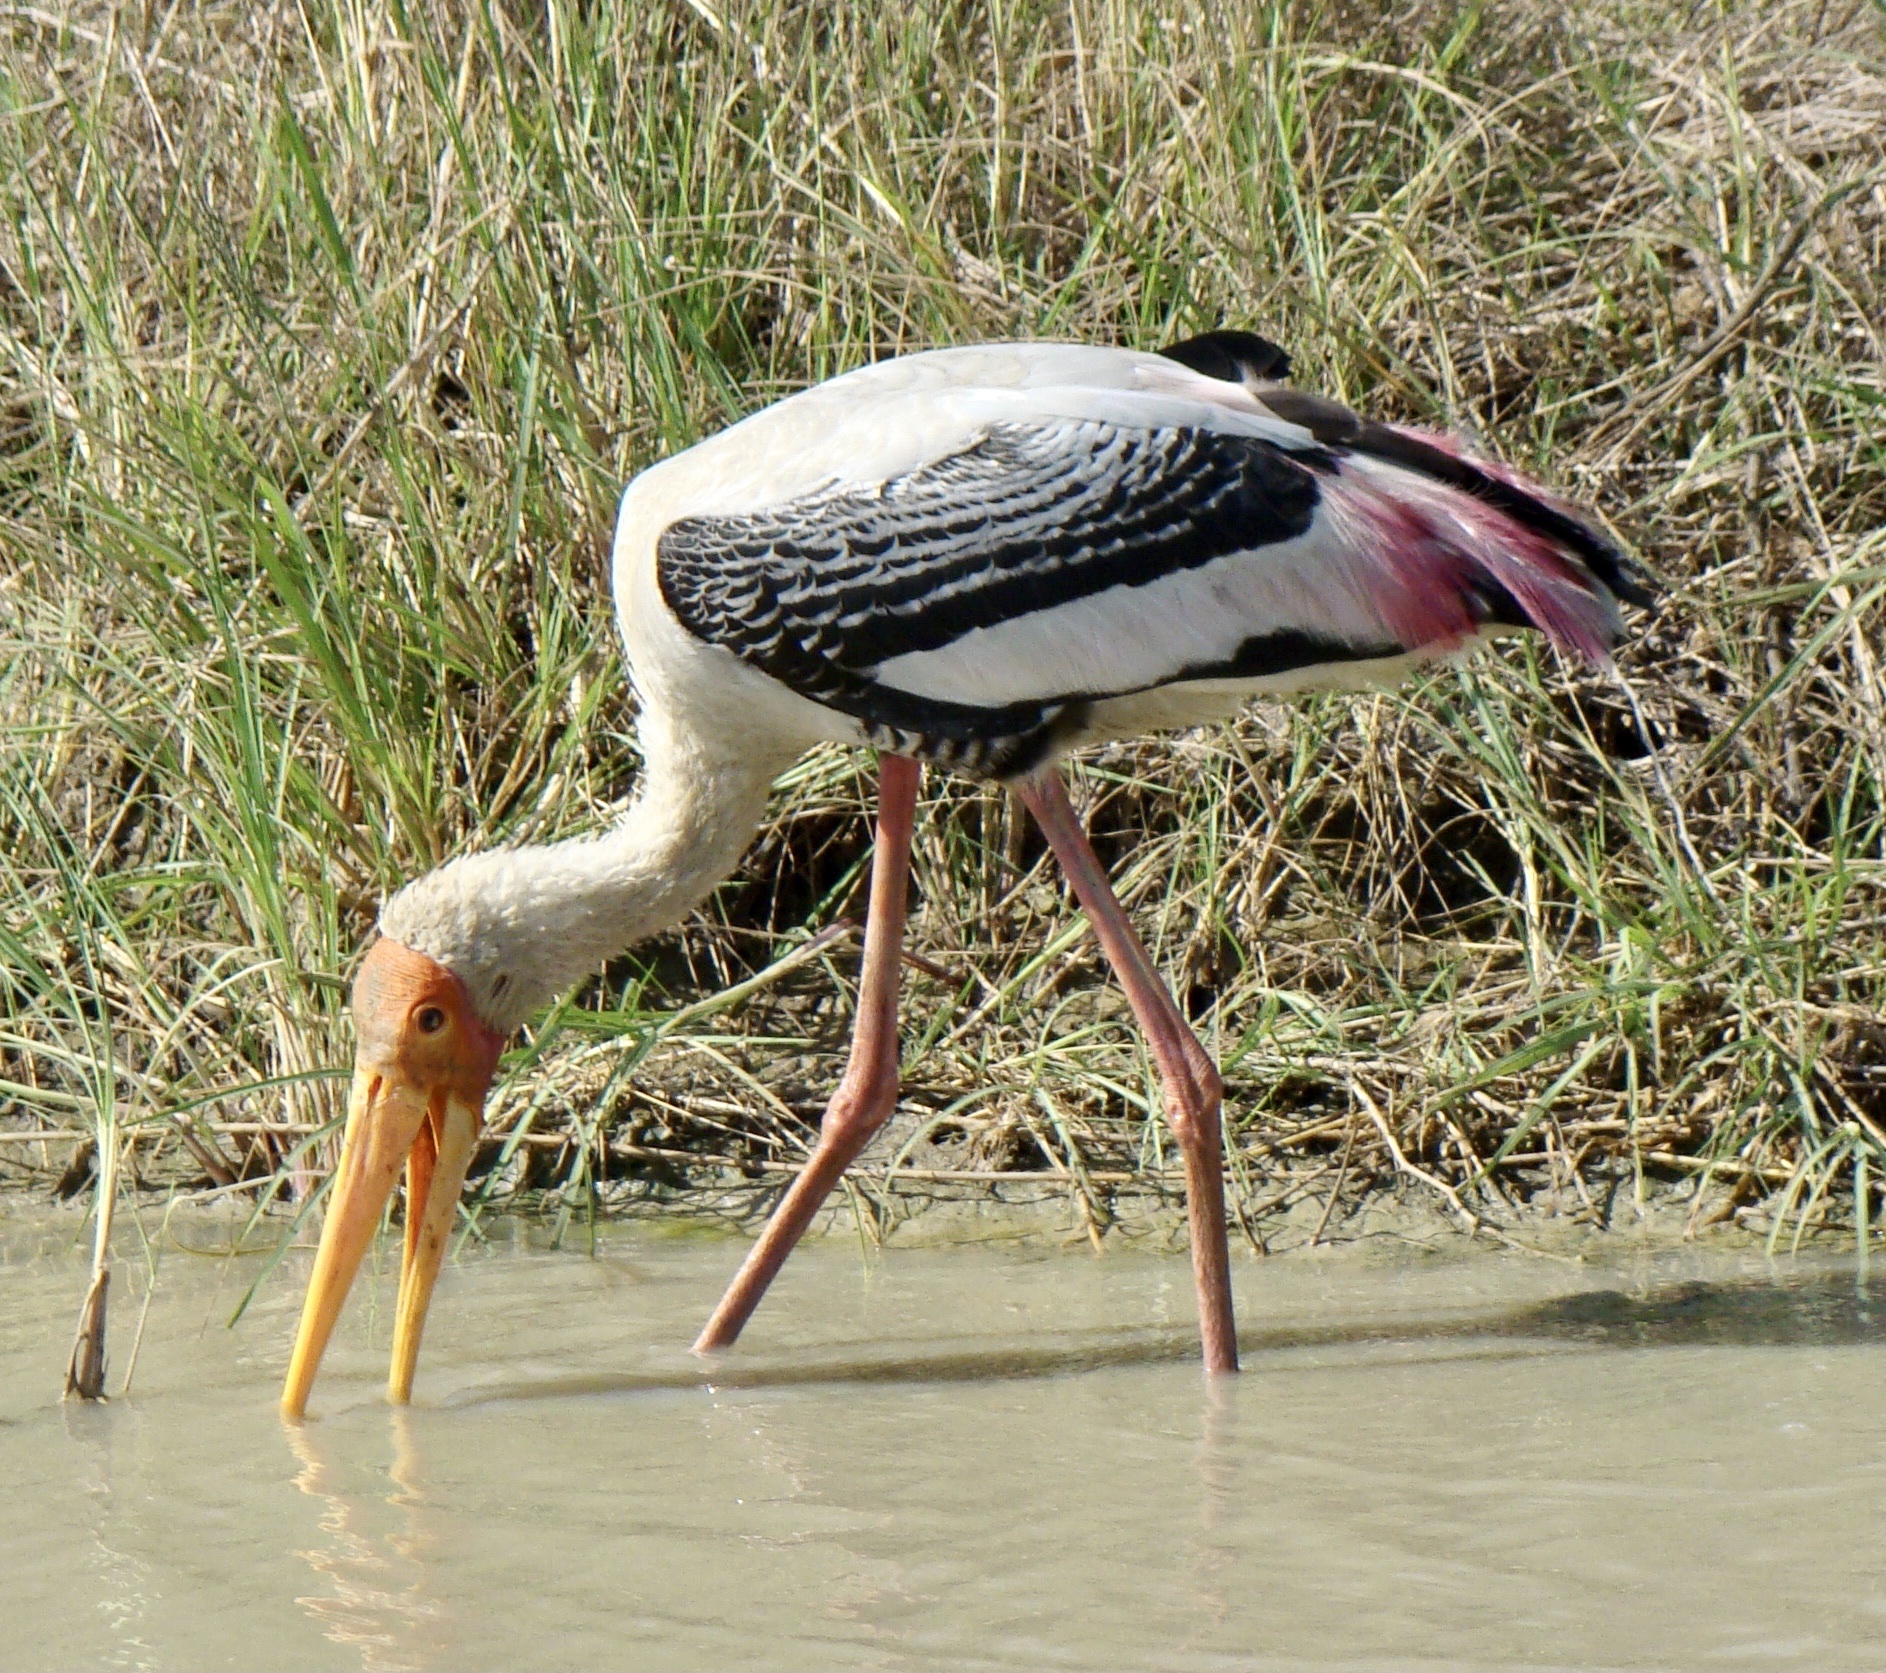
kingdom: Animalia
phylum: Chordata
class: Aves
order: Ciconiiformes
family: Ciconiidae
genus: Mycteria
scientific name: Mycteria leucocephala
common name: Painted stork
